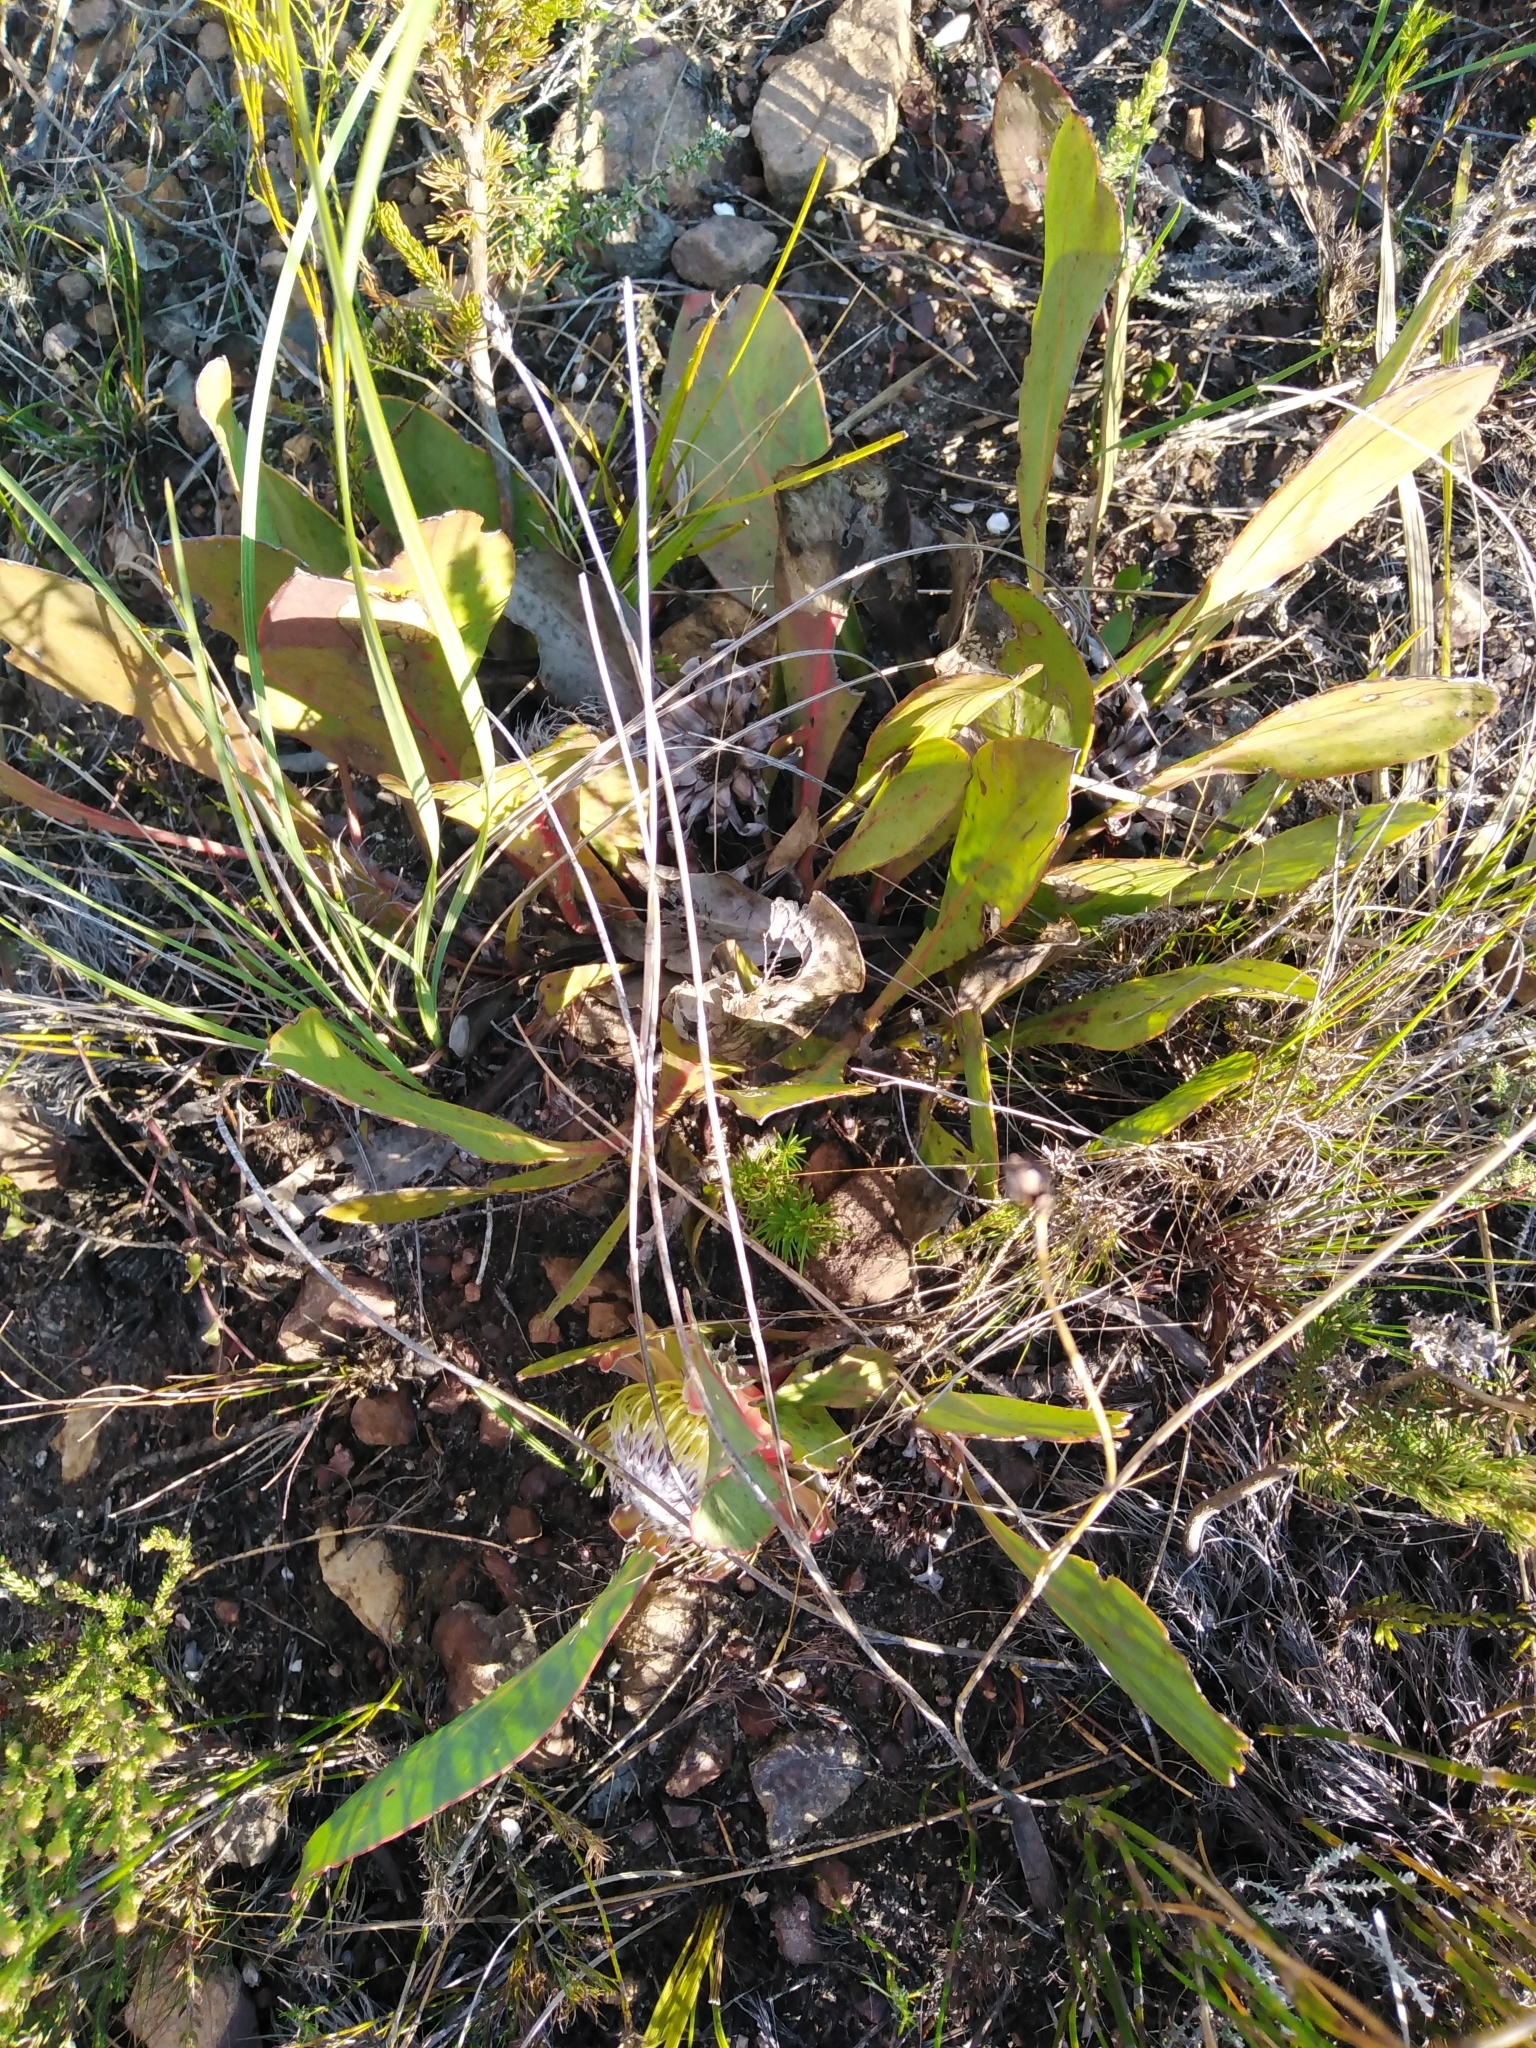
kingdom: Plantae
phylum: Tracheophyta
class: Magnoliopsida
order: Proteales
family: Proteaceae
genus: Protea
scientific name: Protea acaulos
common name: Common ground sugarbush
